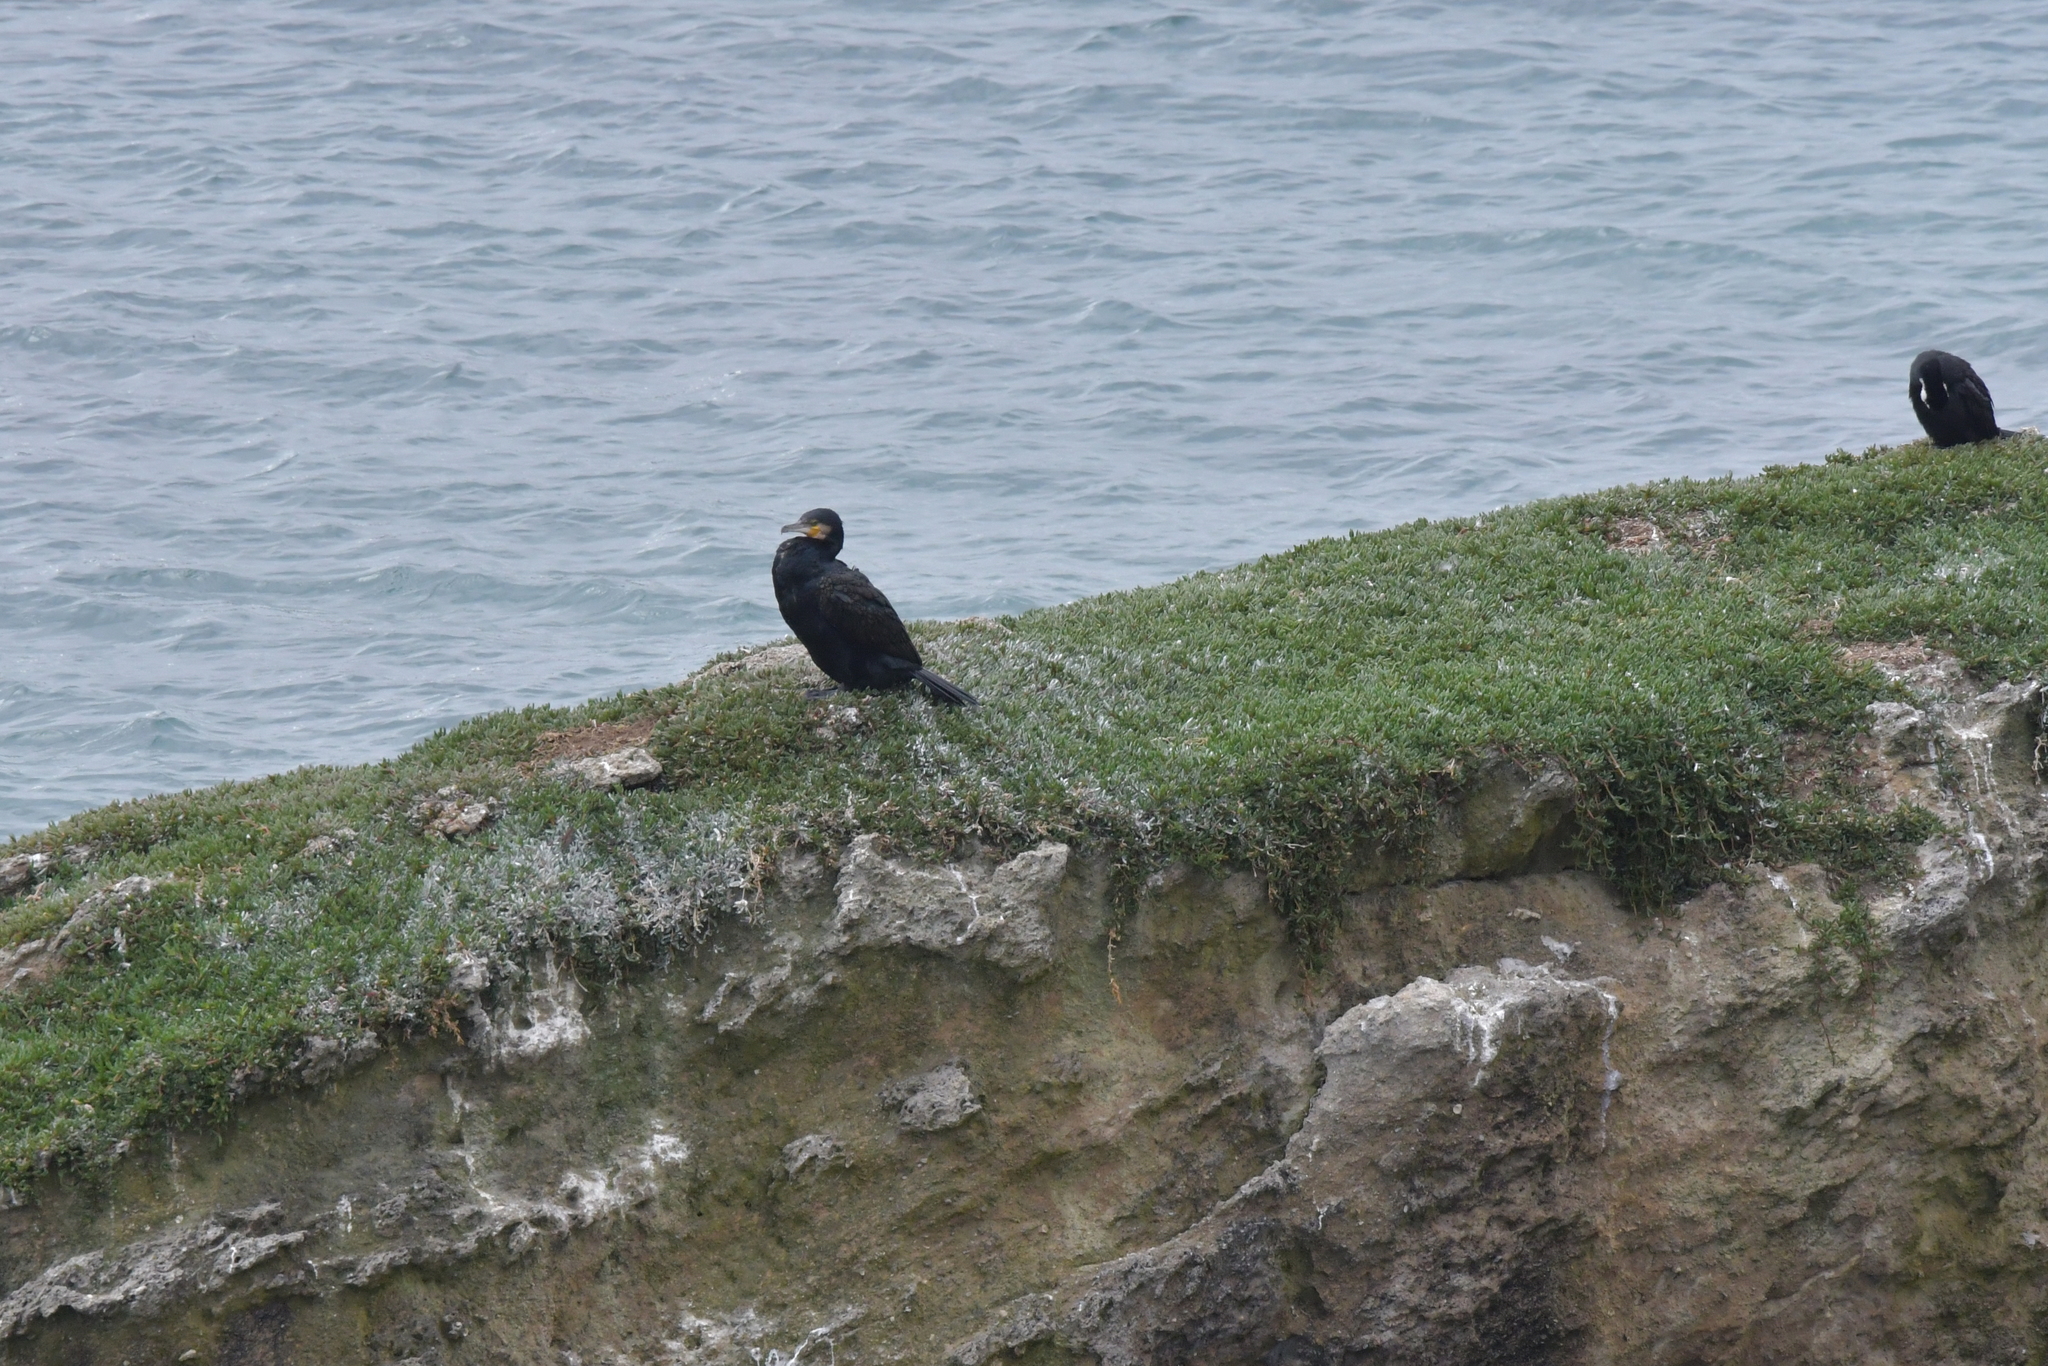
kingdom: Animalia
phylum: Chordata
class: Aves
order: Suliformes
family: Phalacrocoracidae
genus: Phalacrocorax
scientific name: Phalacrocorax carbo
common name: Great cormorant
